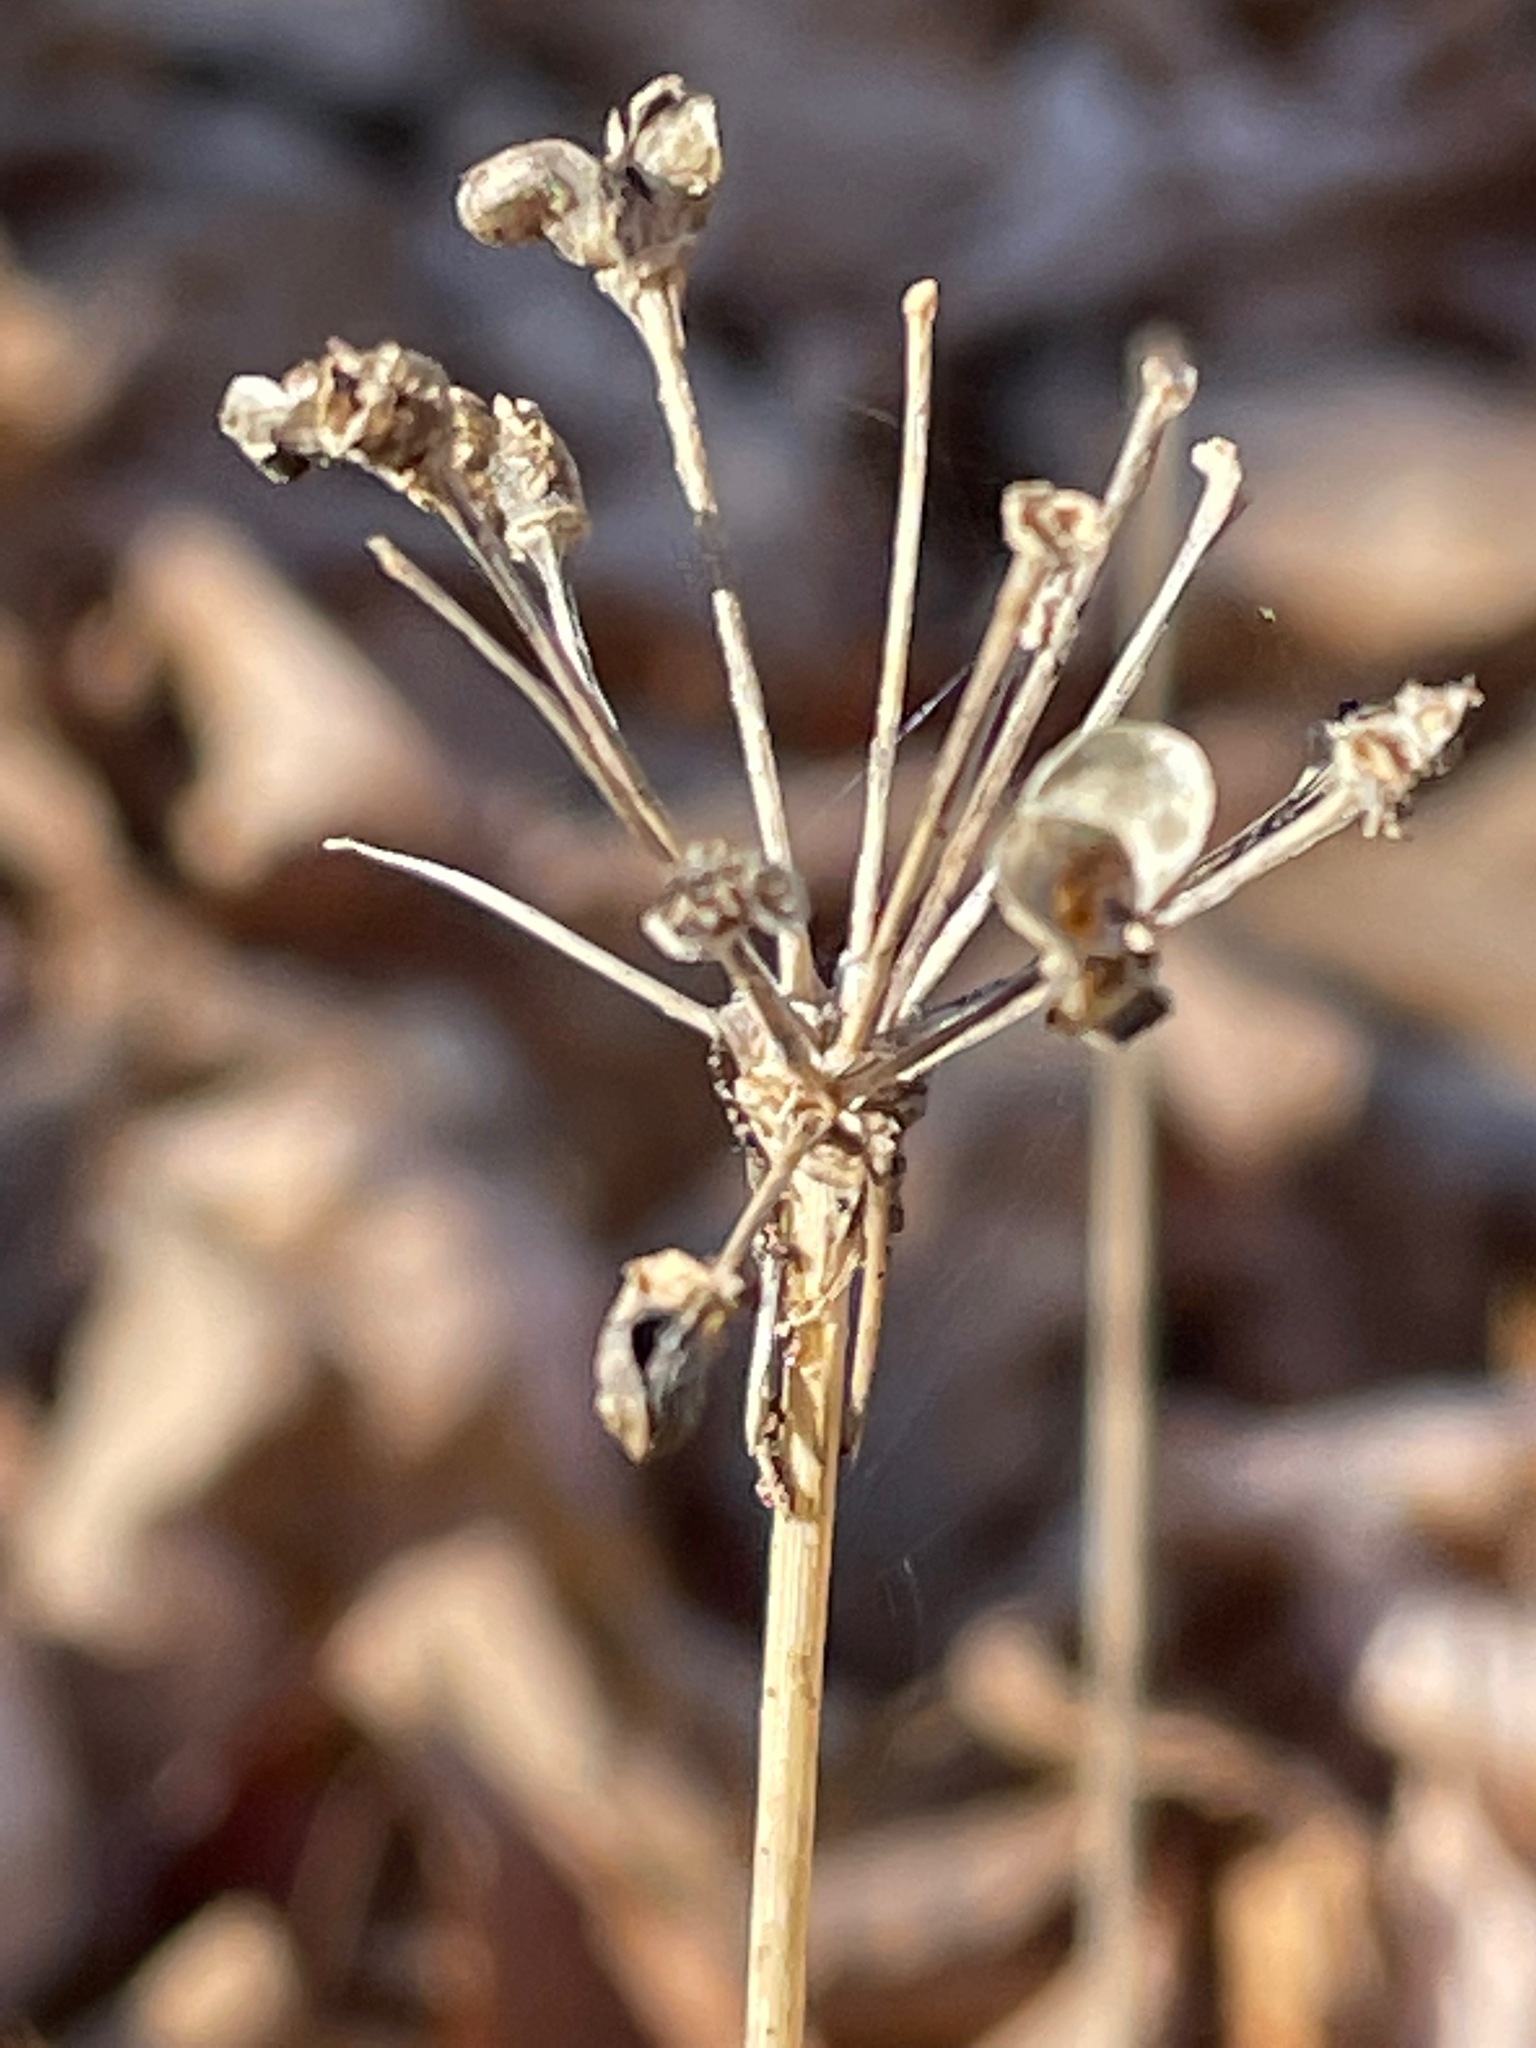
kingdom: Plantae
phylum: Tracheophyta
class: Liliopsida
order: Asparagales
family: Amaryllidaceae
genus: Allium
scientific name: Allium tricoccum
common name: Ramp
